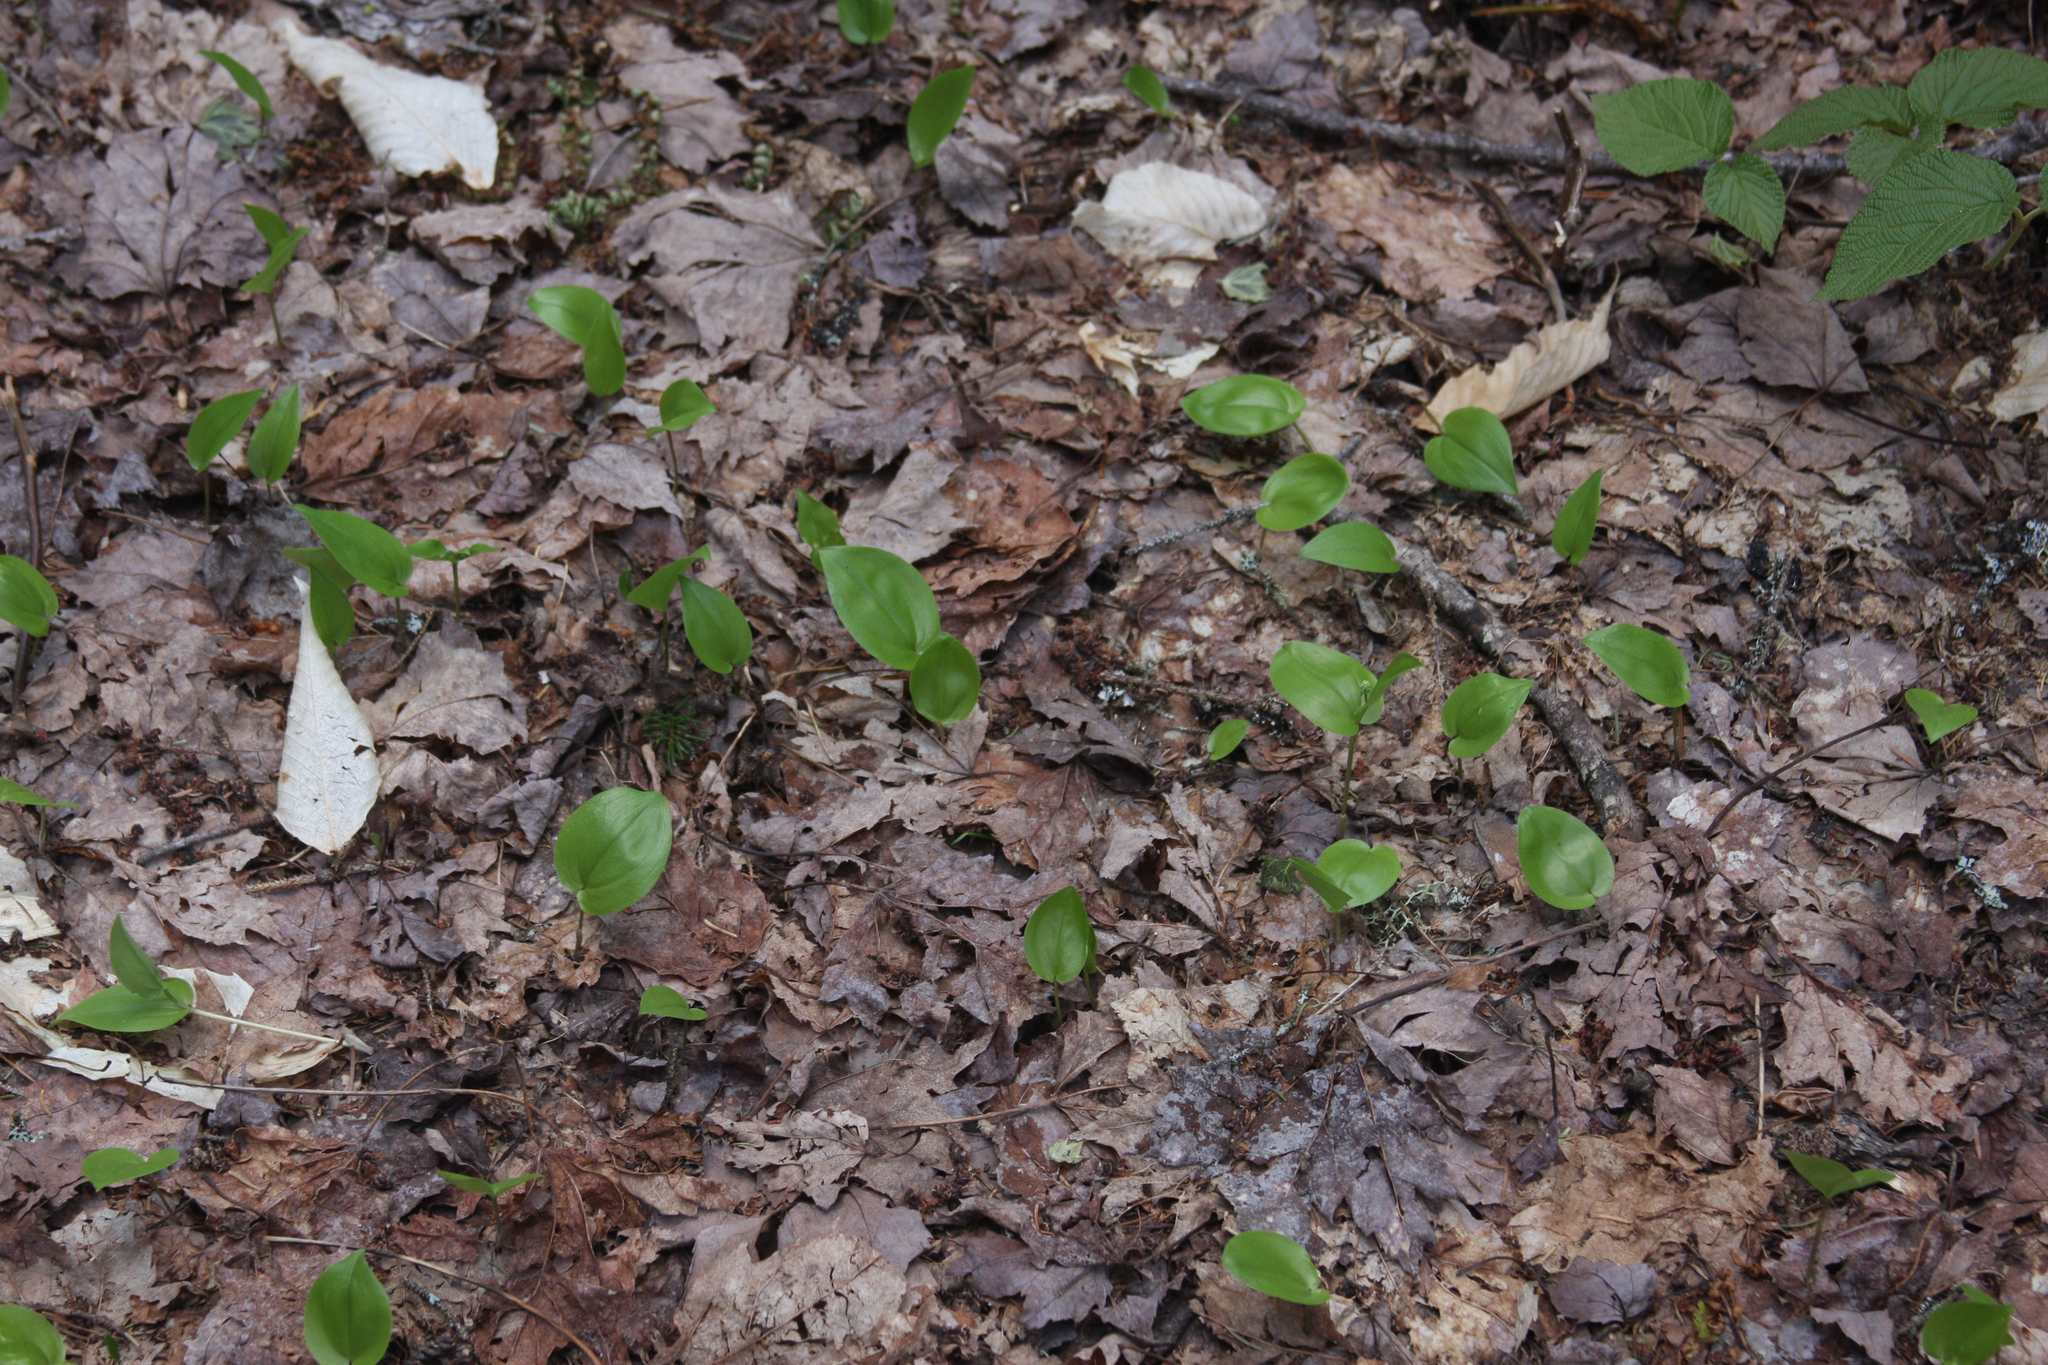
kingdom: Plantae
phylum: Tracheophyta
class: Magnoliopsida
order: Dipsacales
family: Viburnaceae
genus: Viburnum
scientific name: Viburnum lantanoides
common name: Hobblebush
